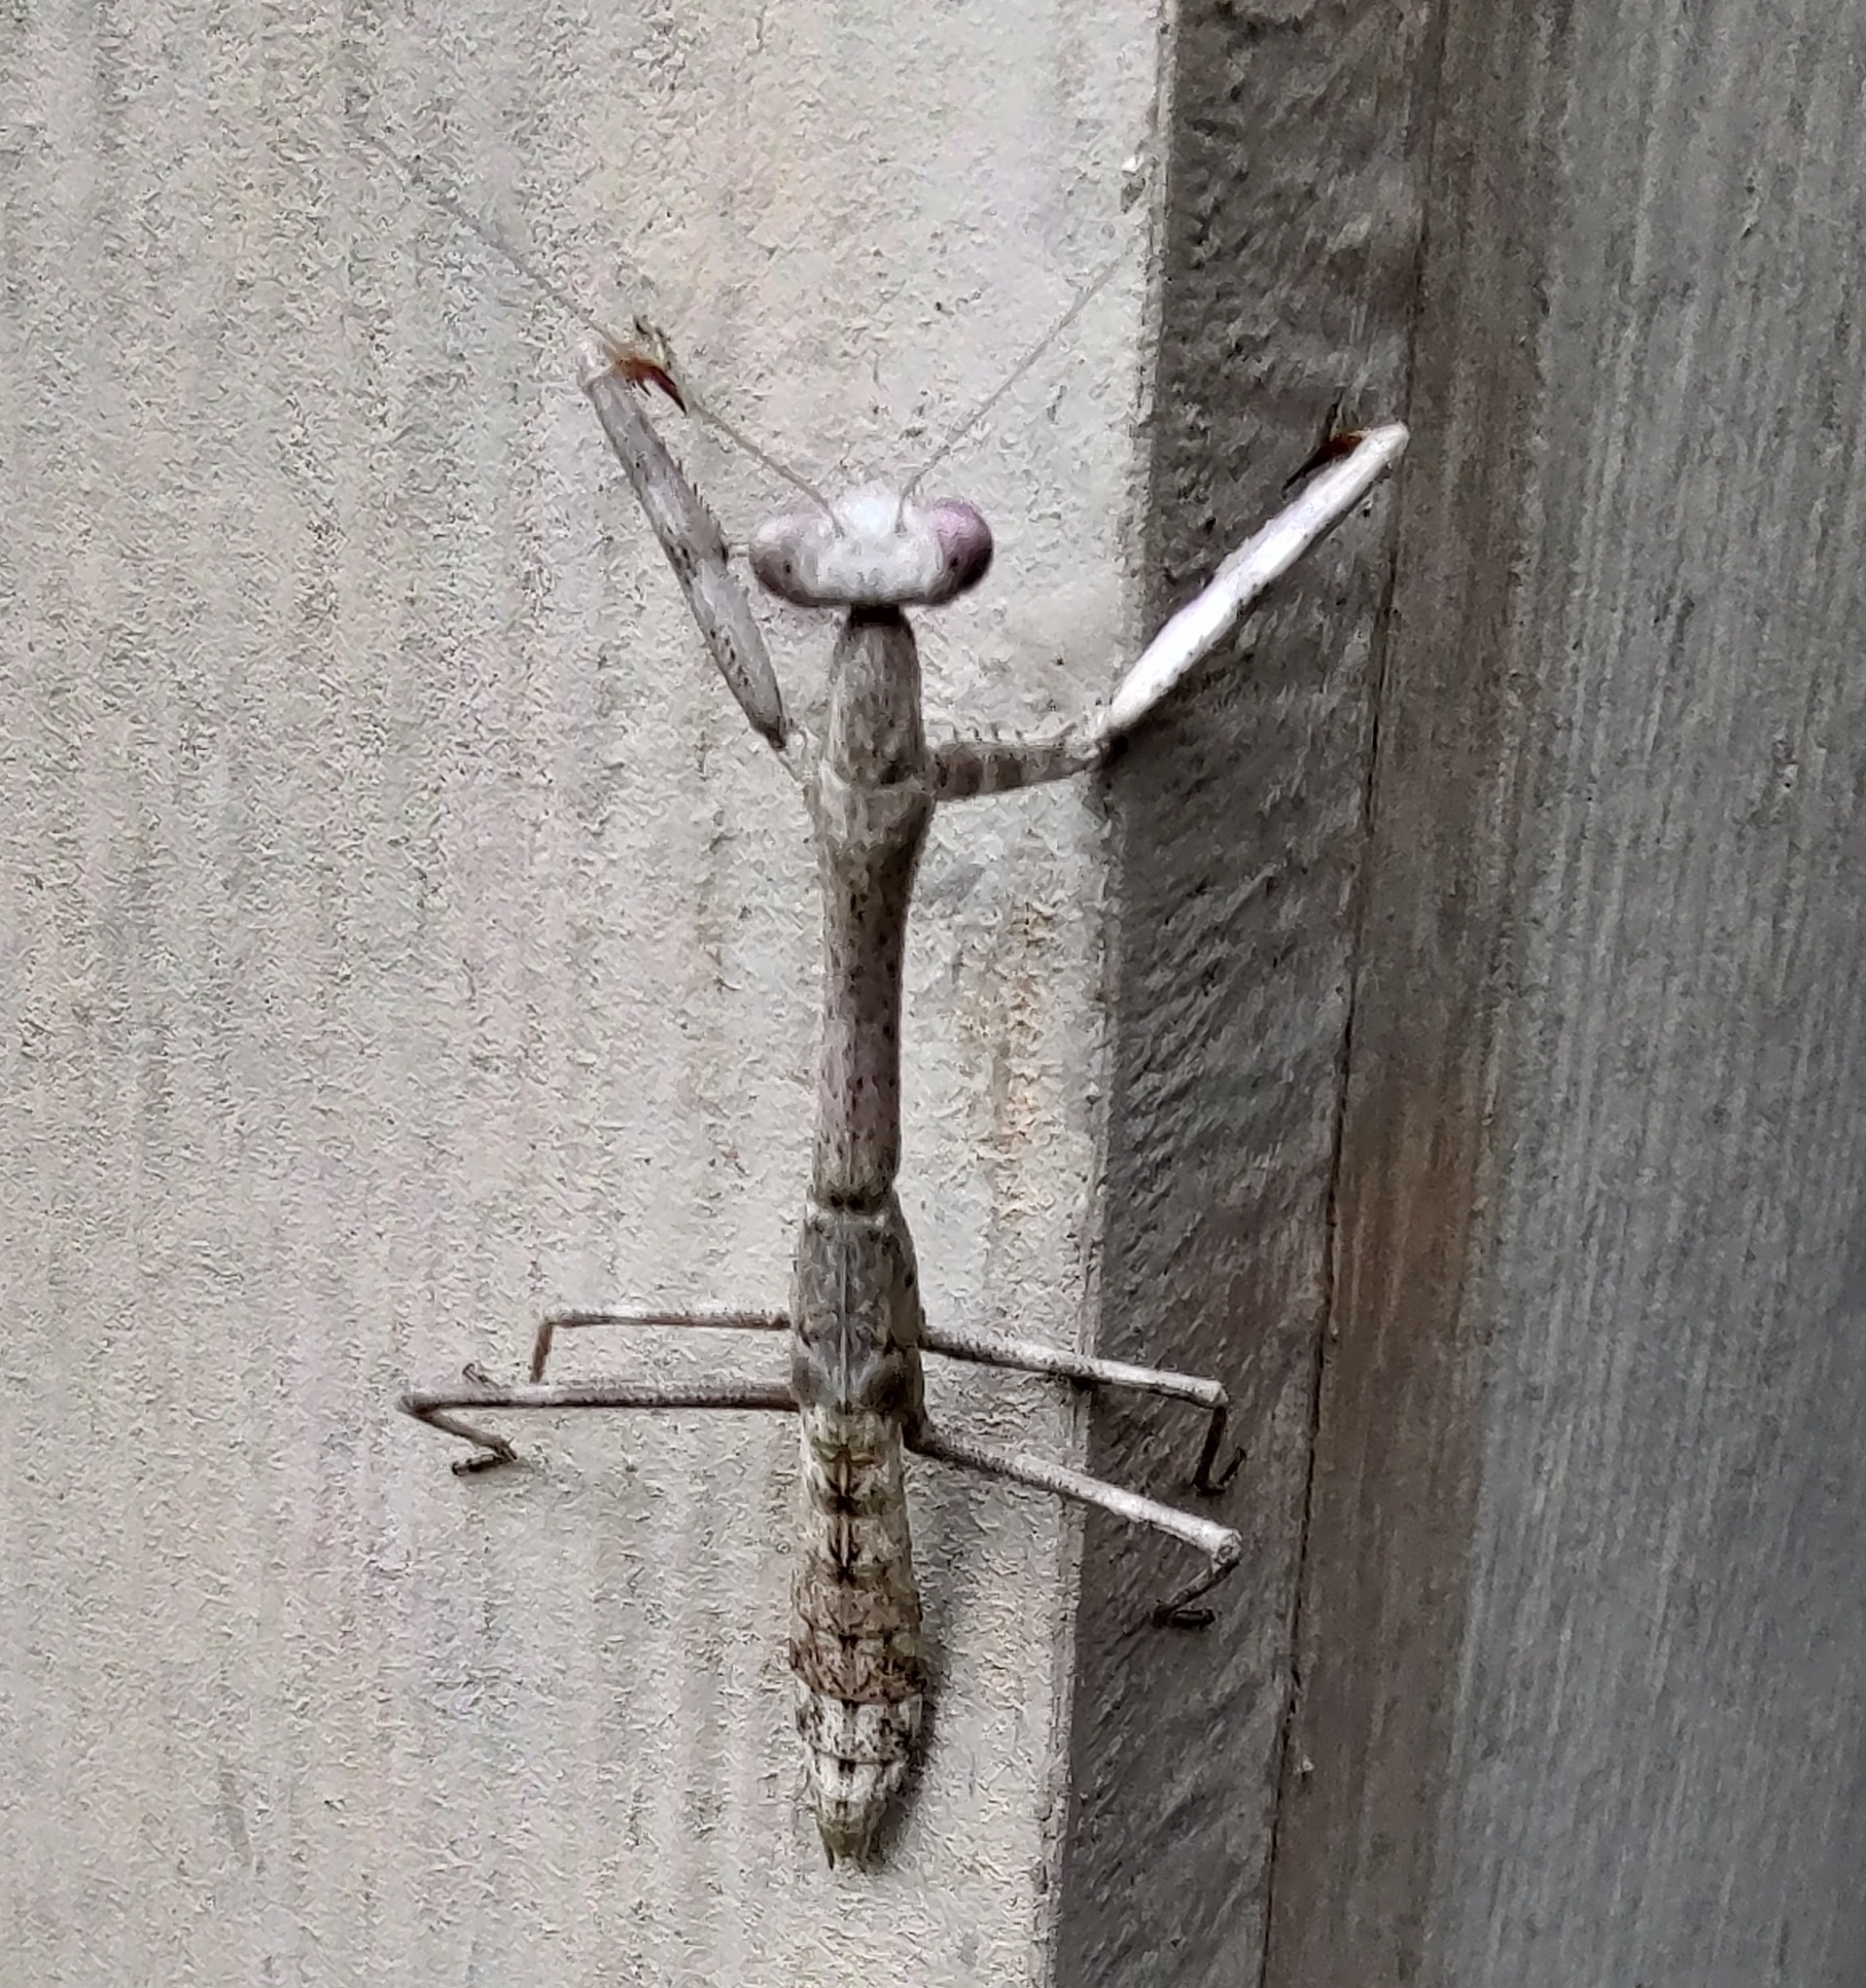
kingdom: Animalia
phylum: Arthropoda
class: Insecta
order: Mantodea
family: Mantidae
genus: Stagmomantis
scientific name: Stagmomantis carolina
